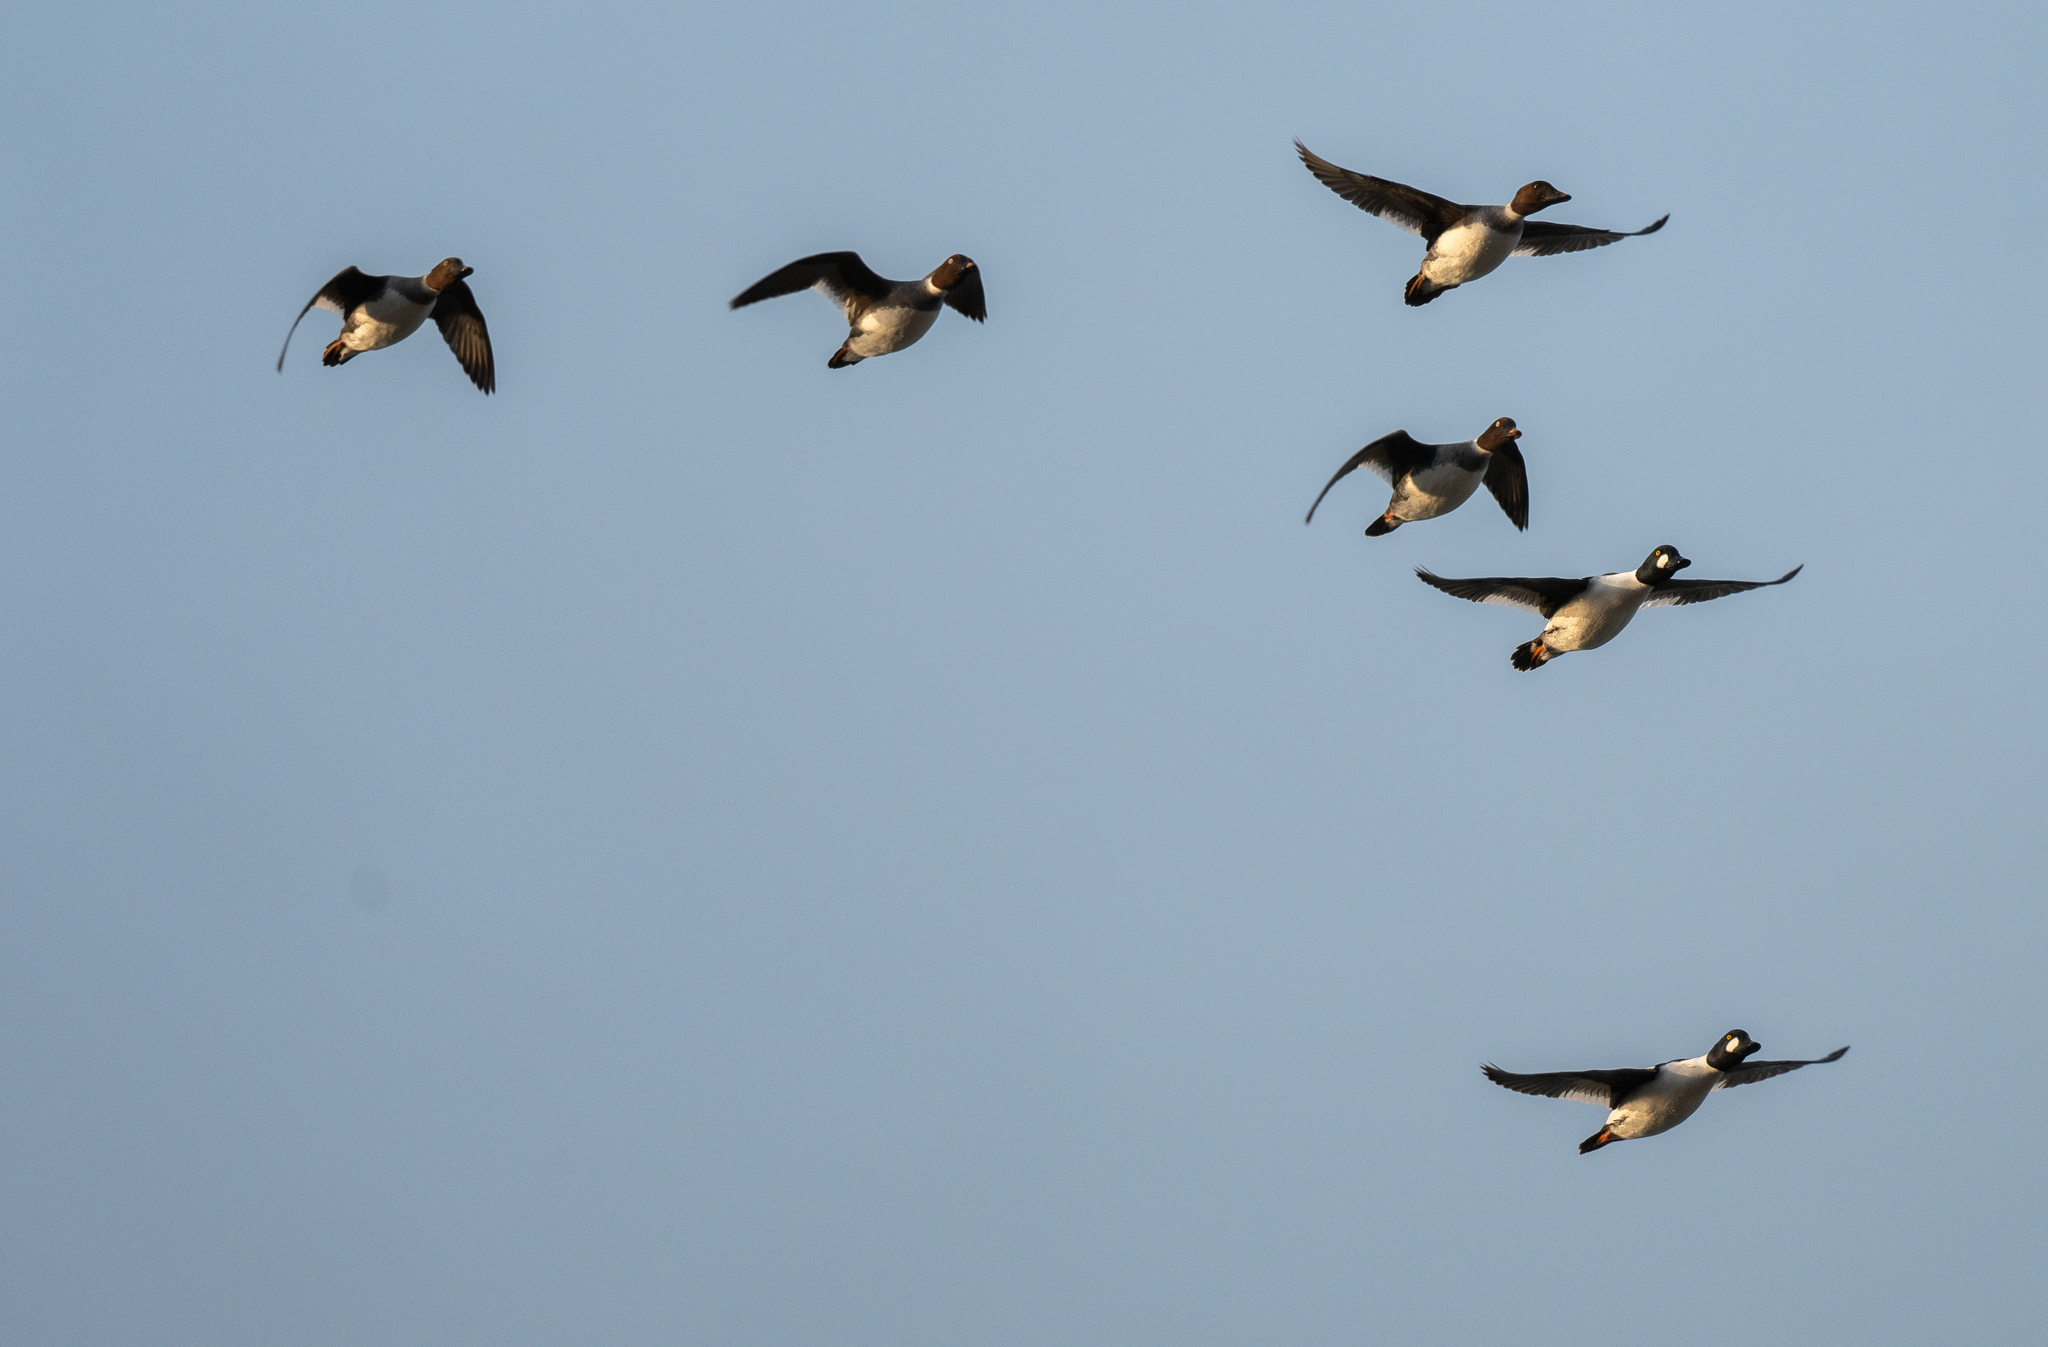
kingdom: Animalia
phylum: Chordata
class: Aves
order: Anseriformes
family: Anatidae
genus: Bucephala
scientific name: Bucephala clangula
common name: Common goldeneye
